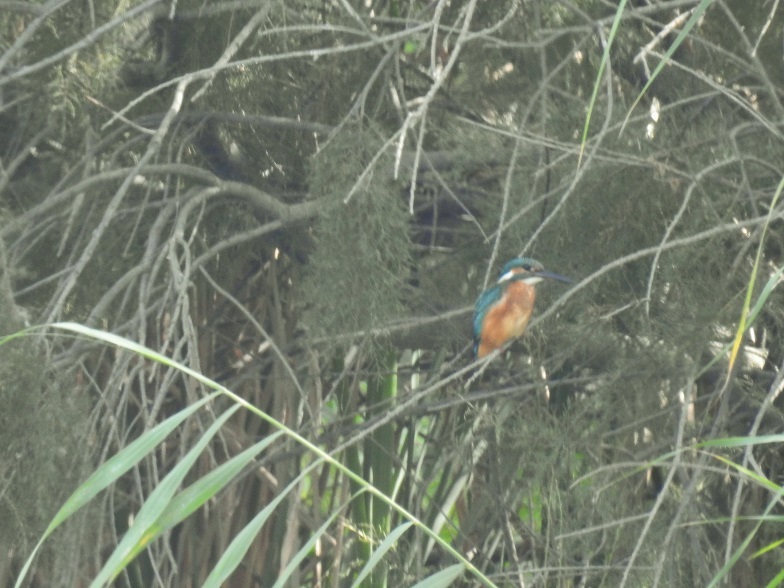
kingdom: Animalia
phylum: Chordata
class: Aves
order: Coraciiformes
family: Alcedinidae
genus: Alcedo
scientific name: Alcedo atthis
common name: Common kingfisher
